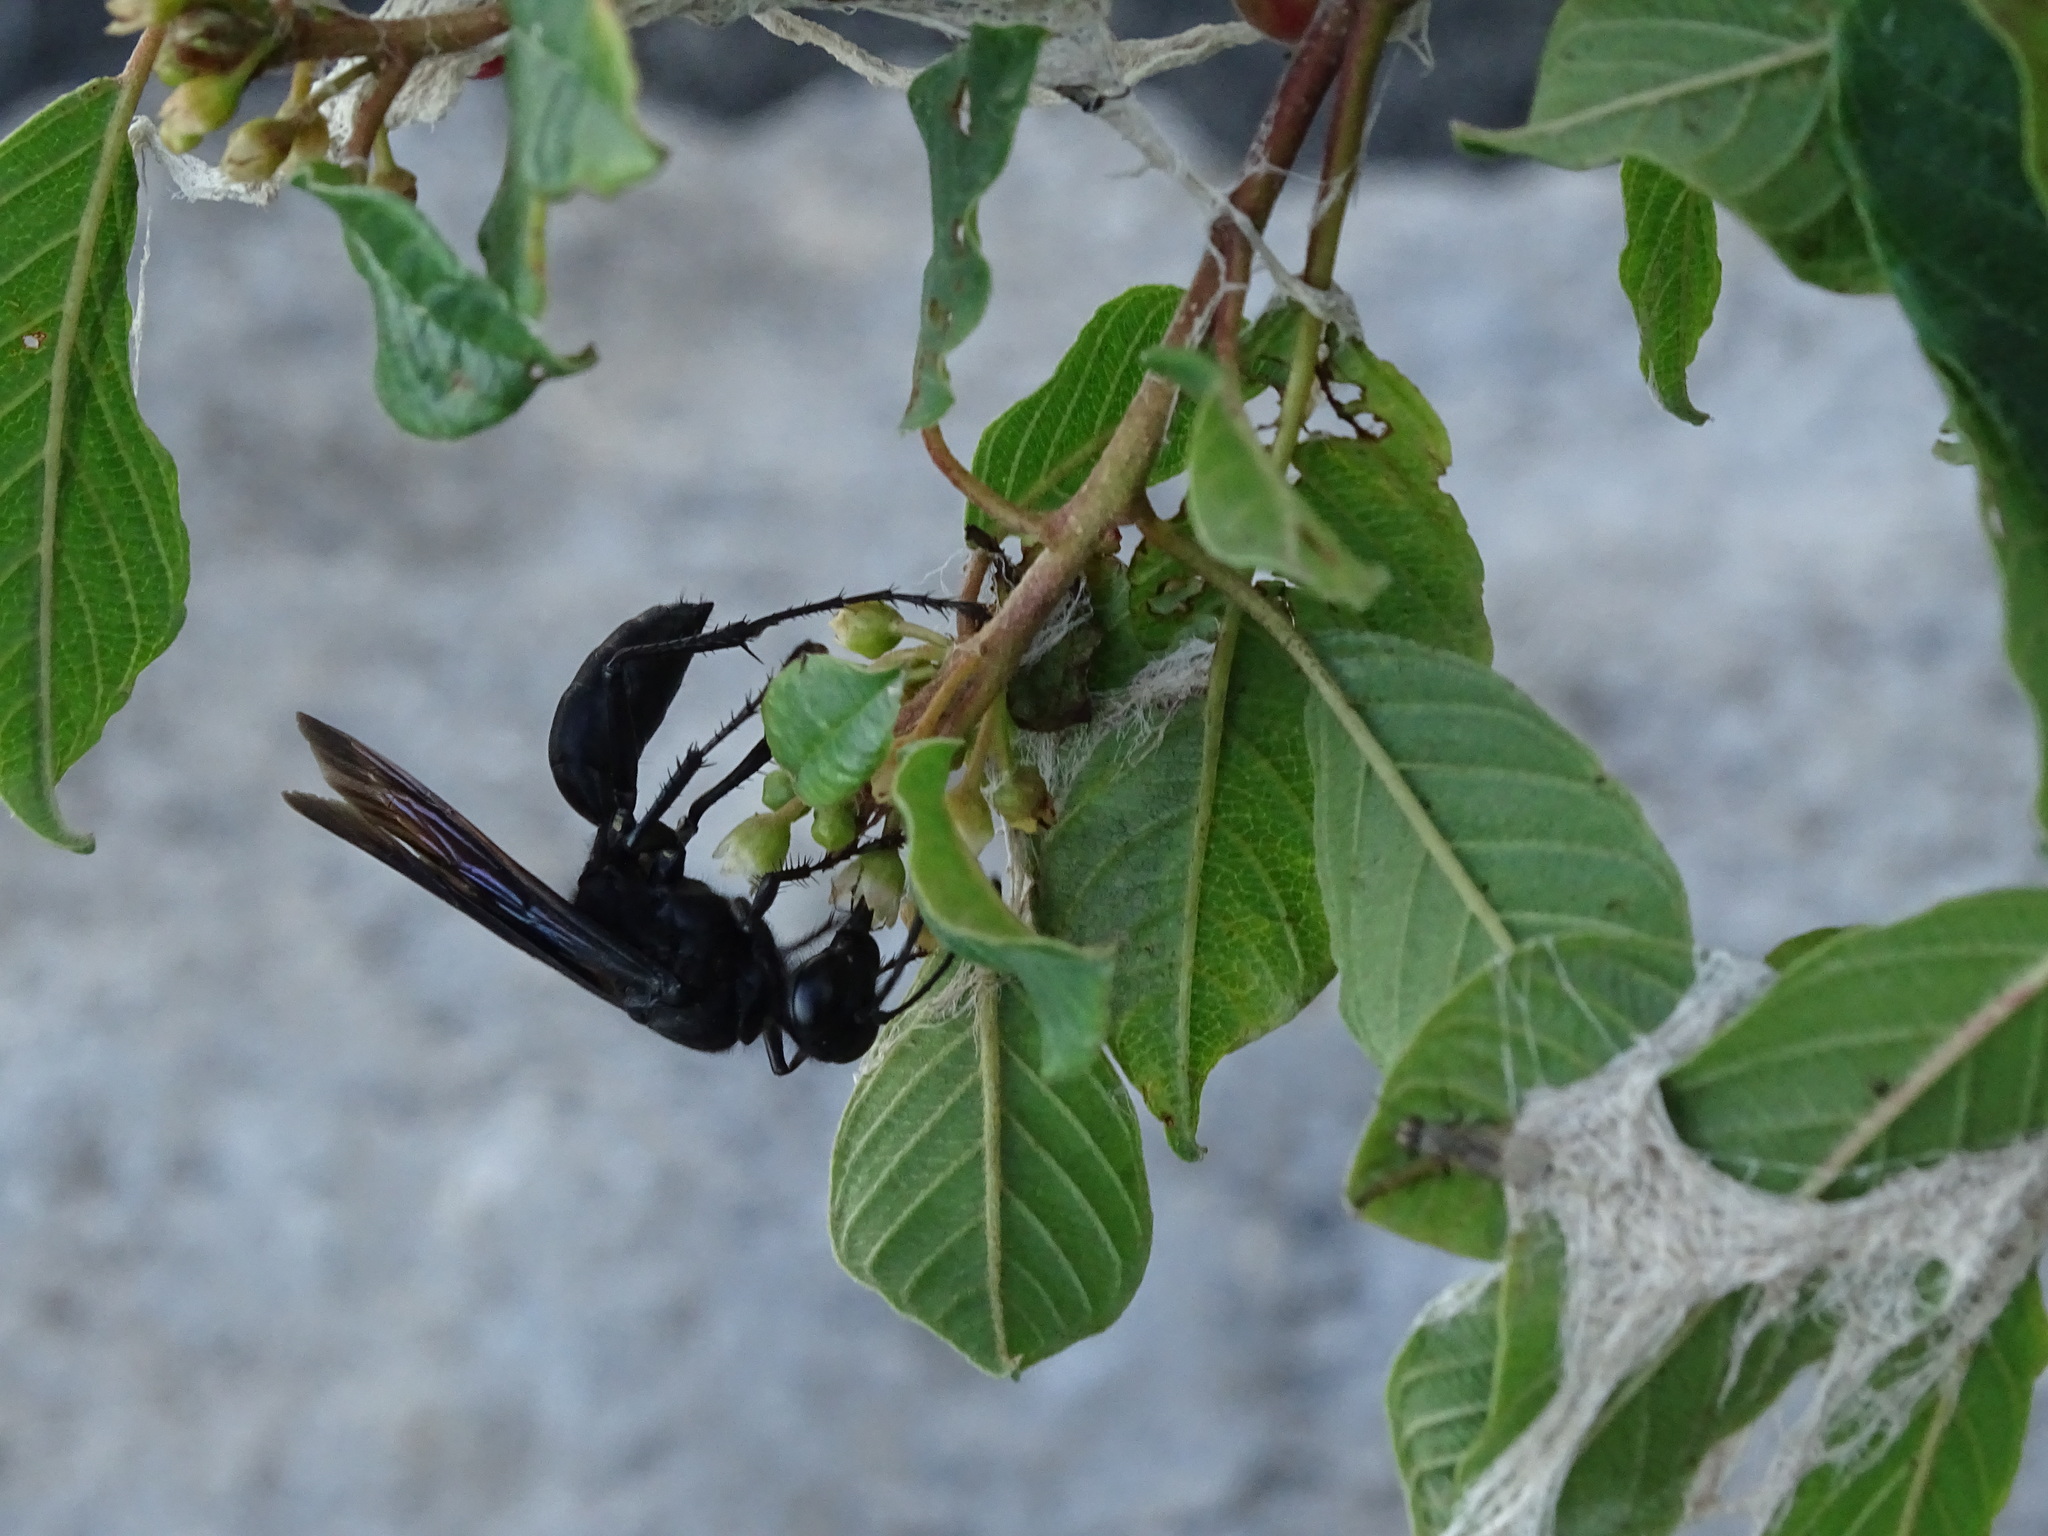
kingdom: Animalia
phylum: Arthropoda
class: Insecta
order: Hymenoptera
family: Sphecidae
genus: Sphex
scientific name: Sphex pensylvanicus
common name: Great black digger wasp
